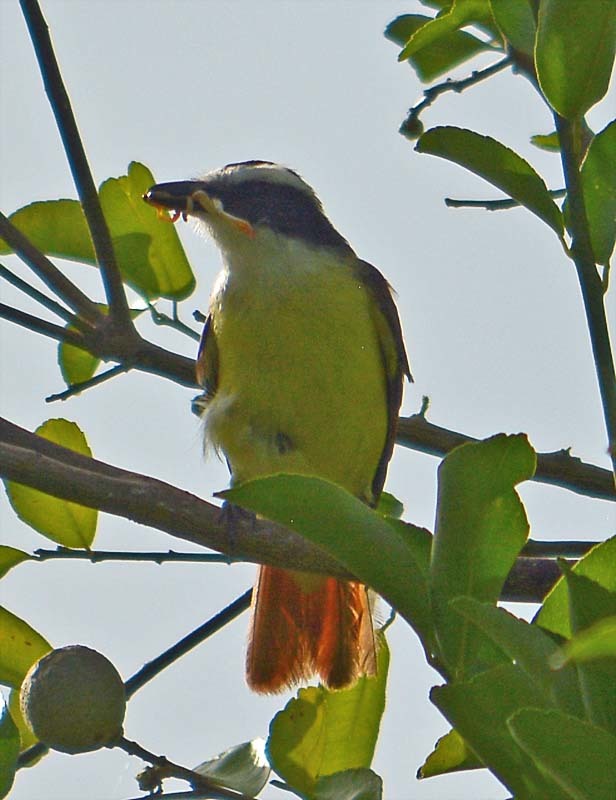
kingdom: Animalia
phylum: Chordata
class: Aves
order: Passeriformes
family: Tyrannidae
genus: Pitangus
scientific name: Pitangus sulphuratus
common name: Great kiskadee
